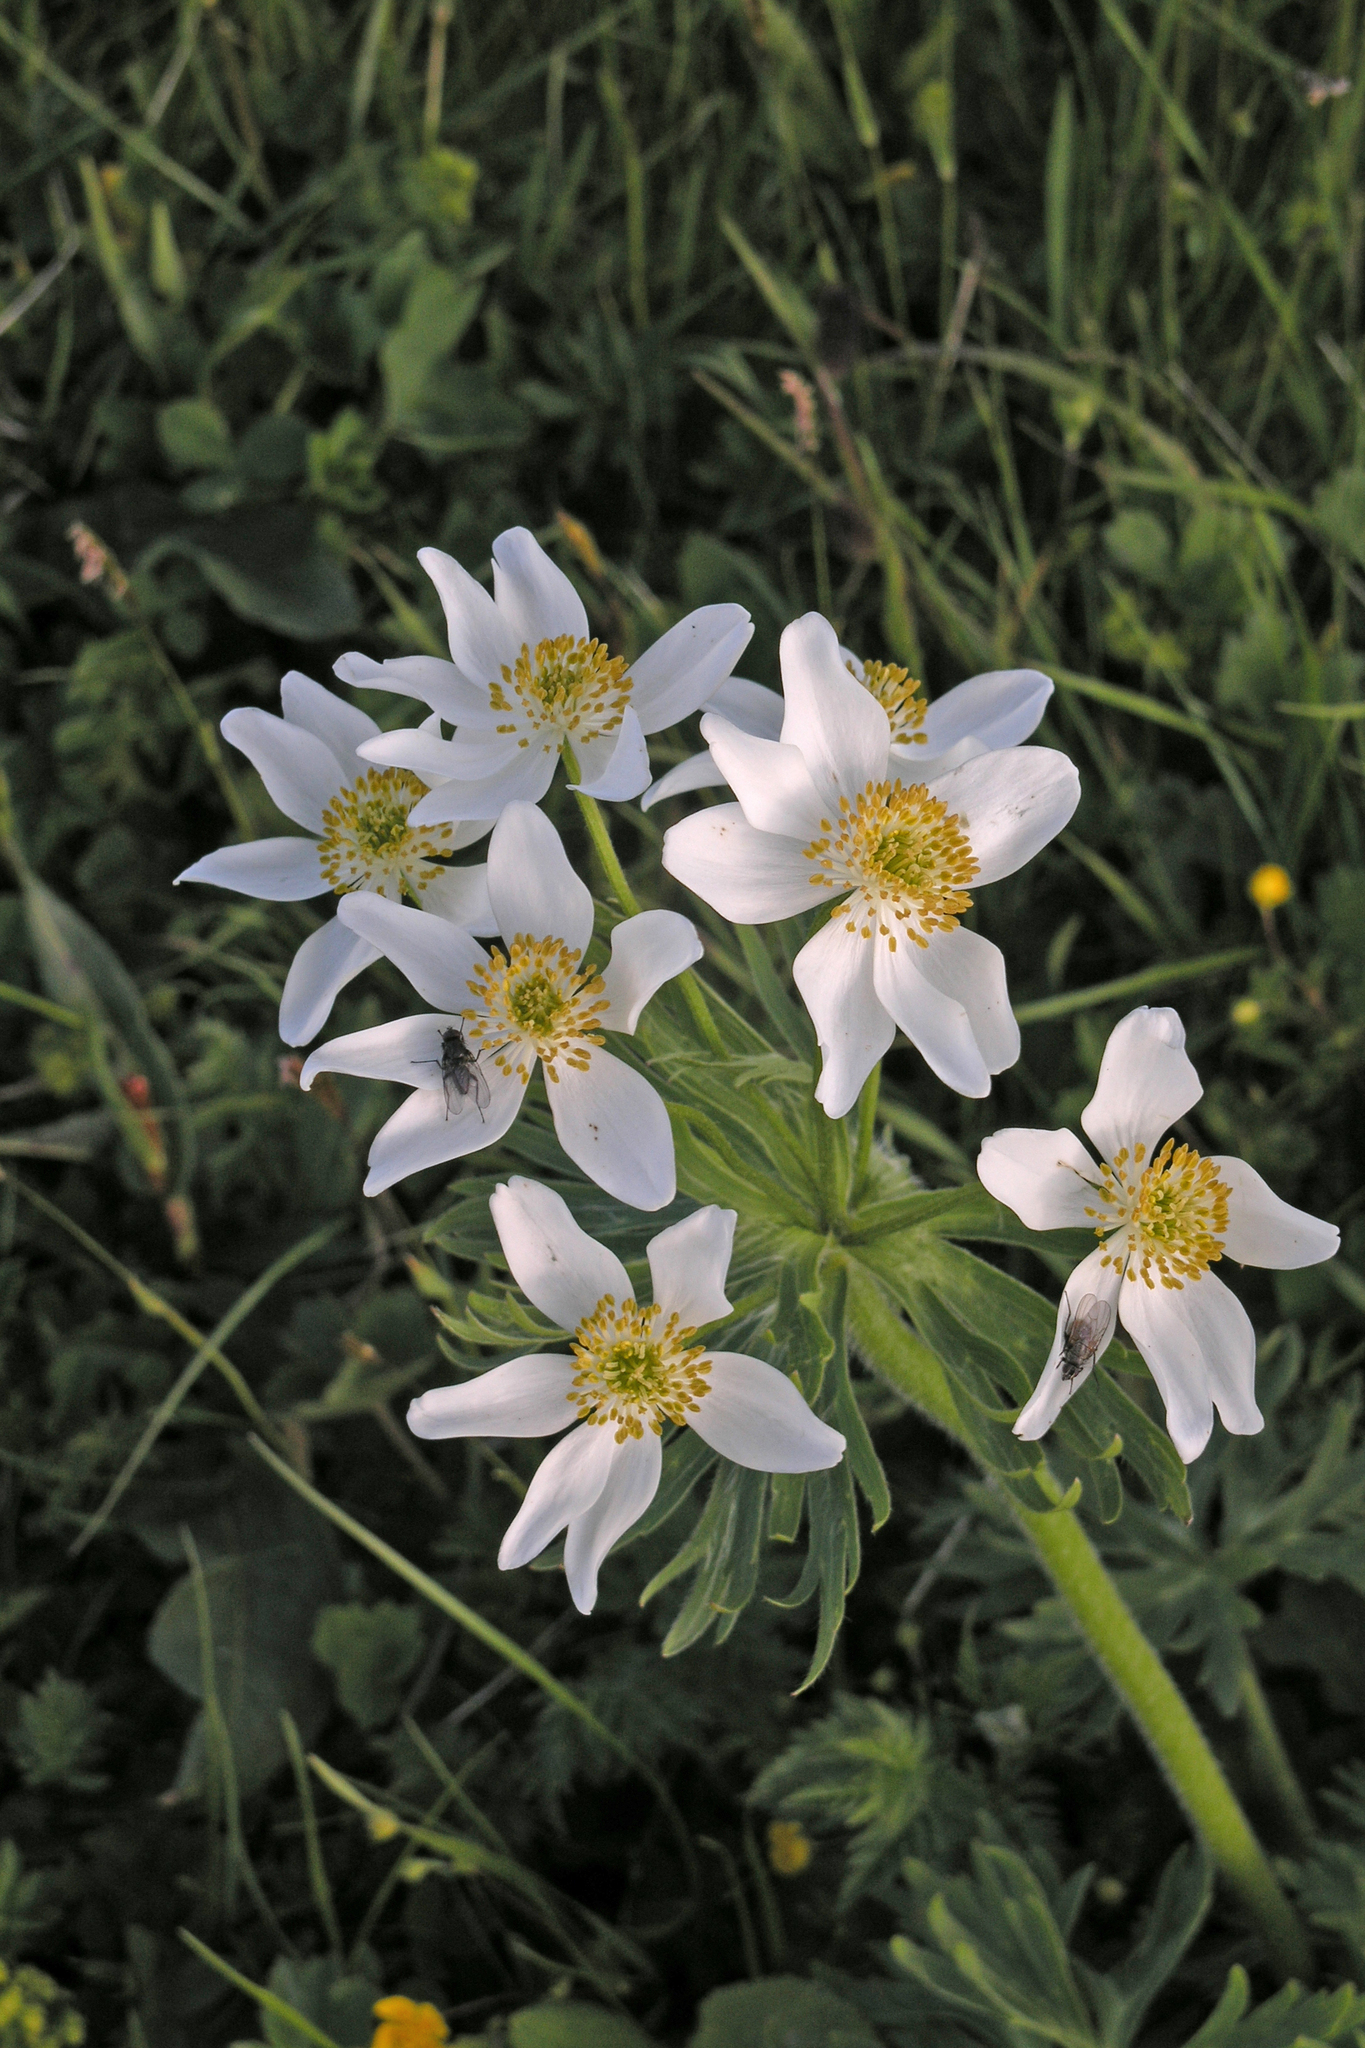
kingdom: Plantae
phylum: Tracheophyta
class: Magnoliopsida
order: Ranunculales
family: Ranunculaceae
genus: Anemonastrum
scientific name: Anemonastrum narcissiflorum
